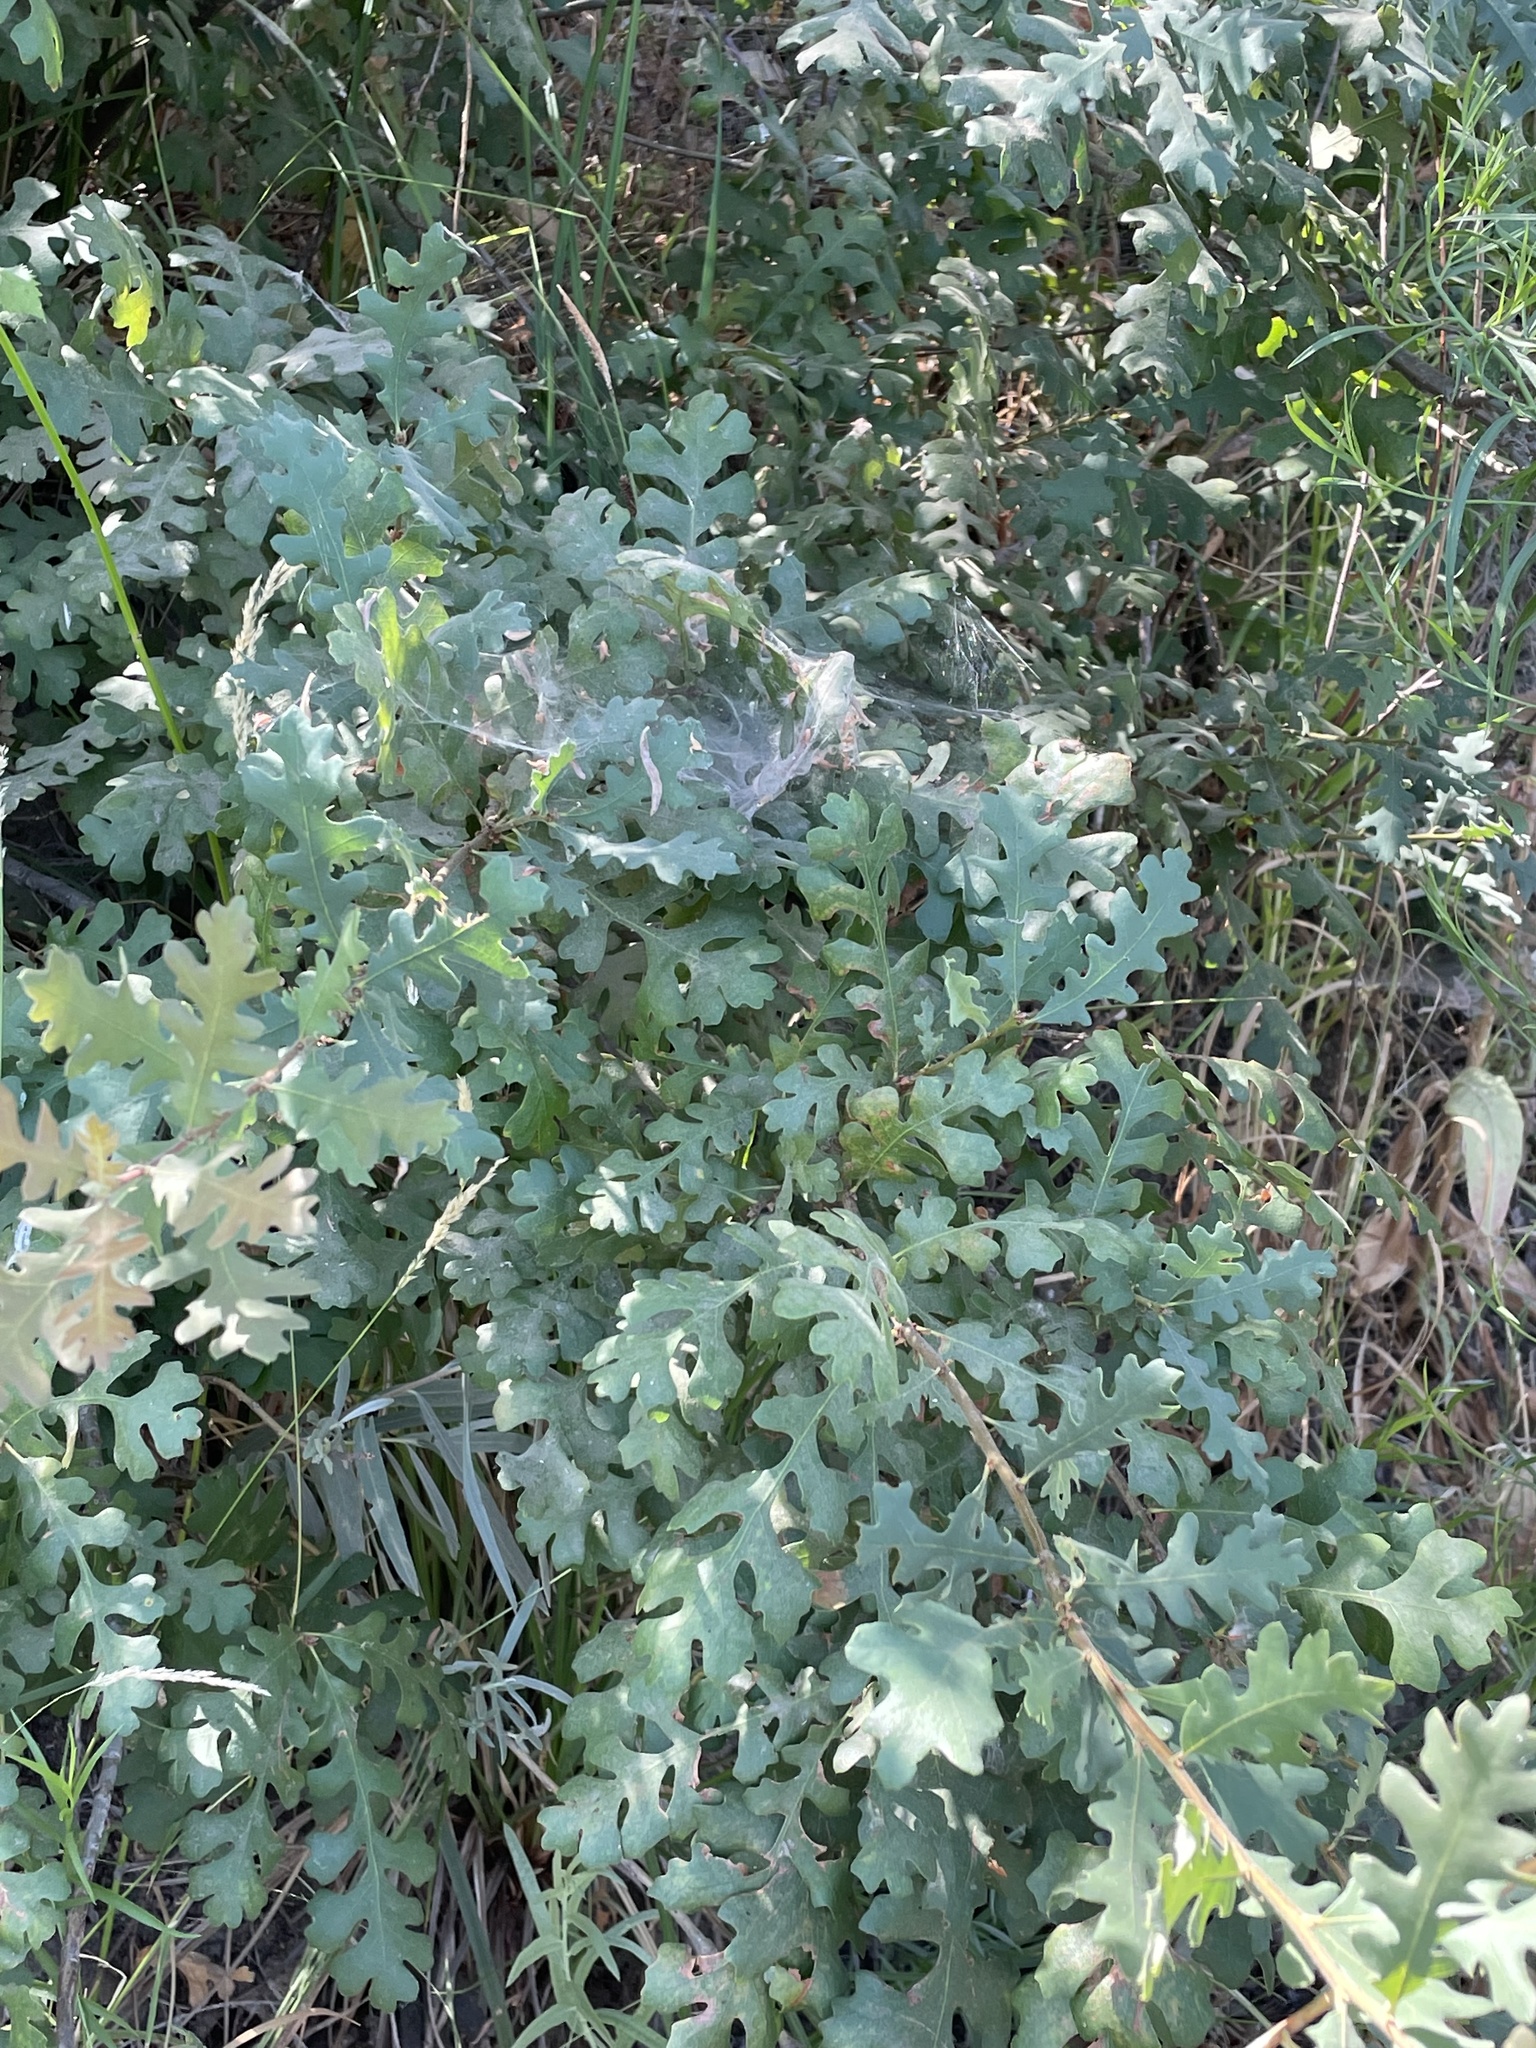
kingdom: Plantae
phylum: Tracheophyta
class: Magnoliopsida
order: Fagales
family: Fagaceae
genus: Quercus
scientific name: Quercus lobata
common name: Valley oak
